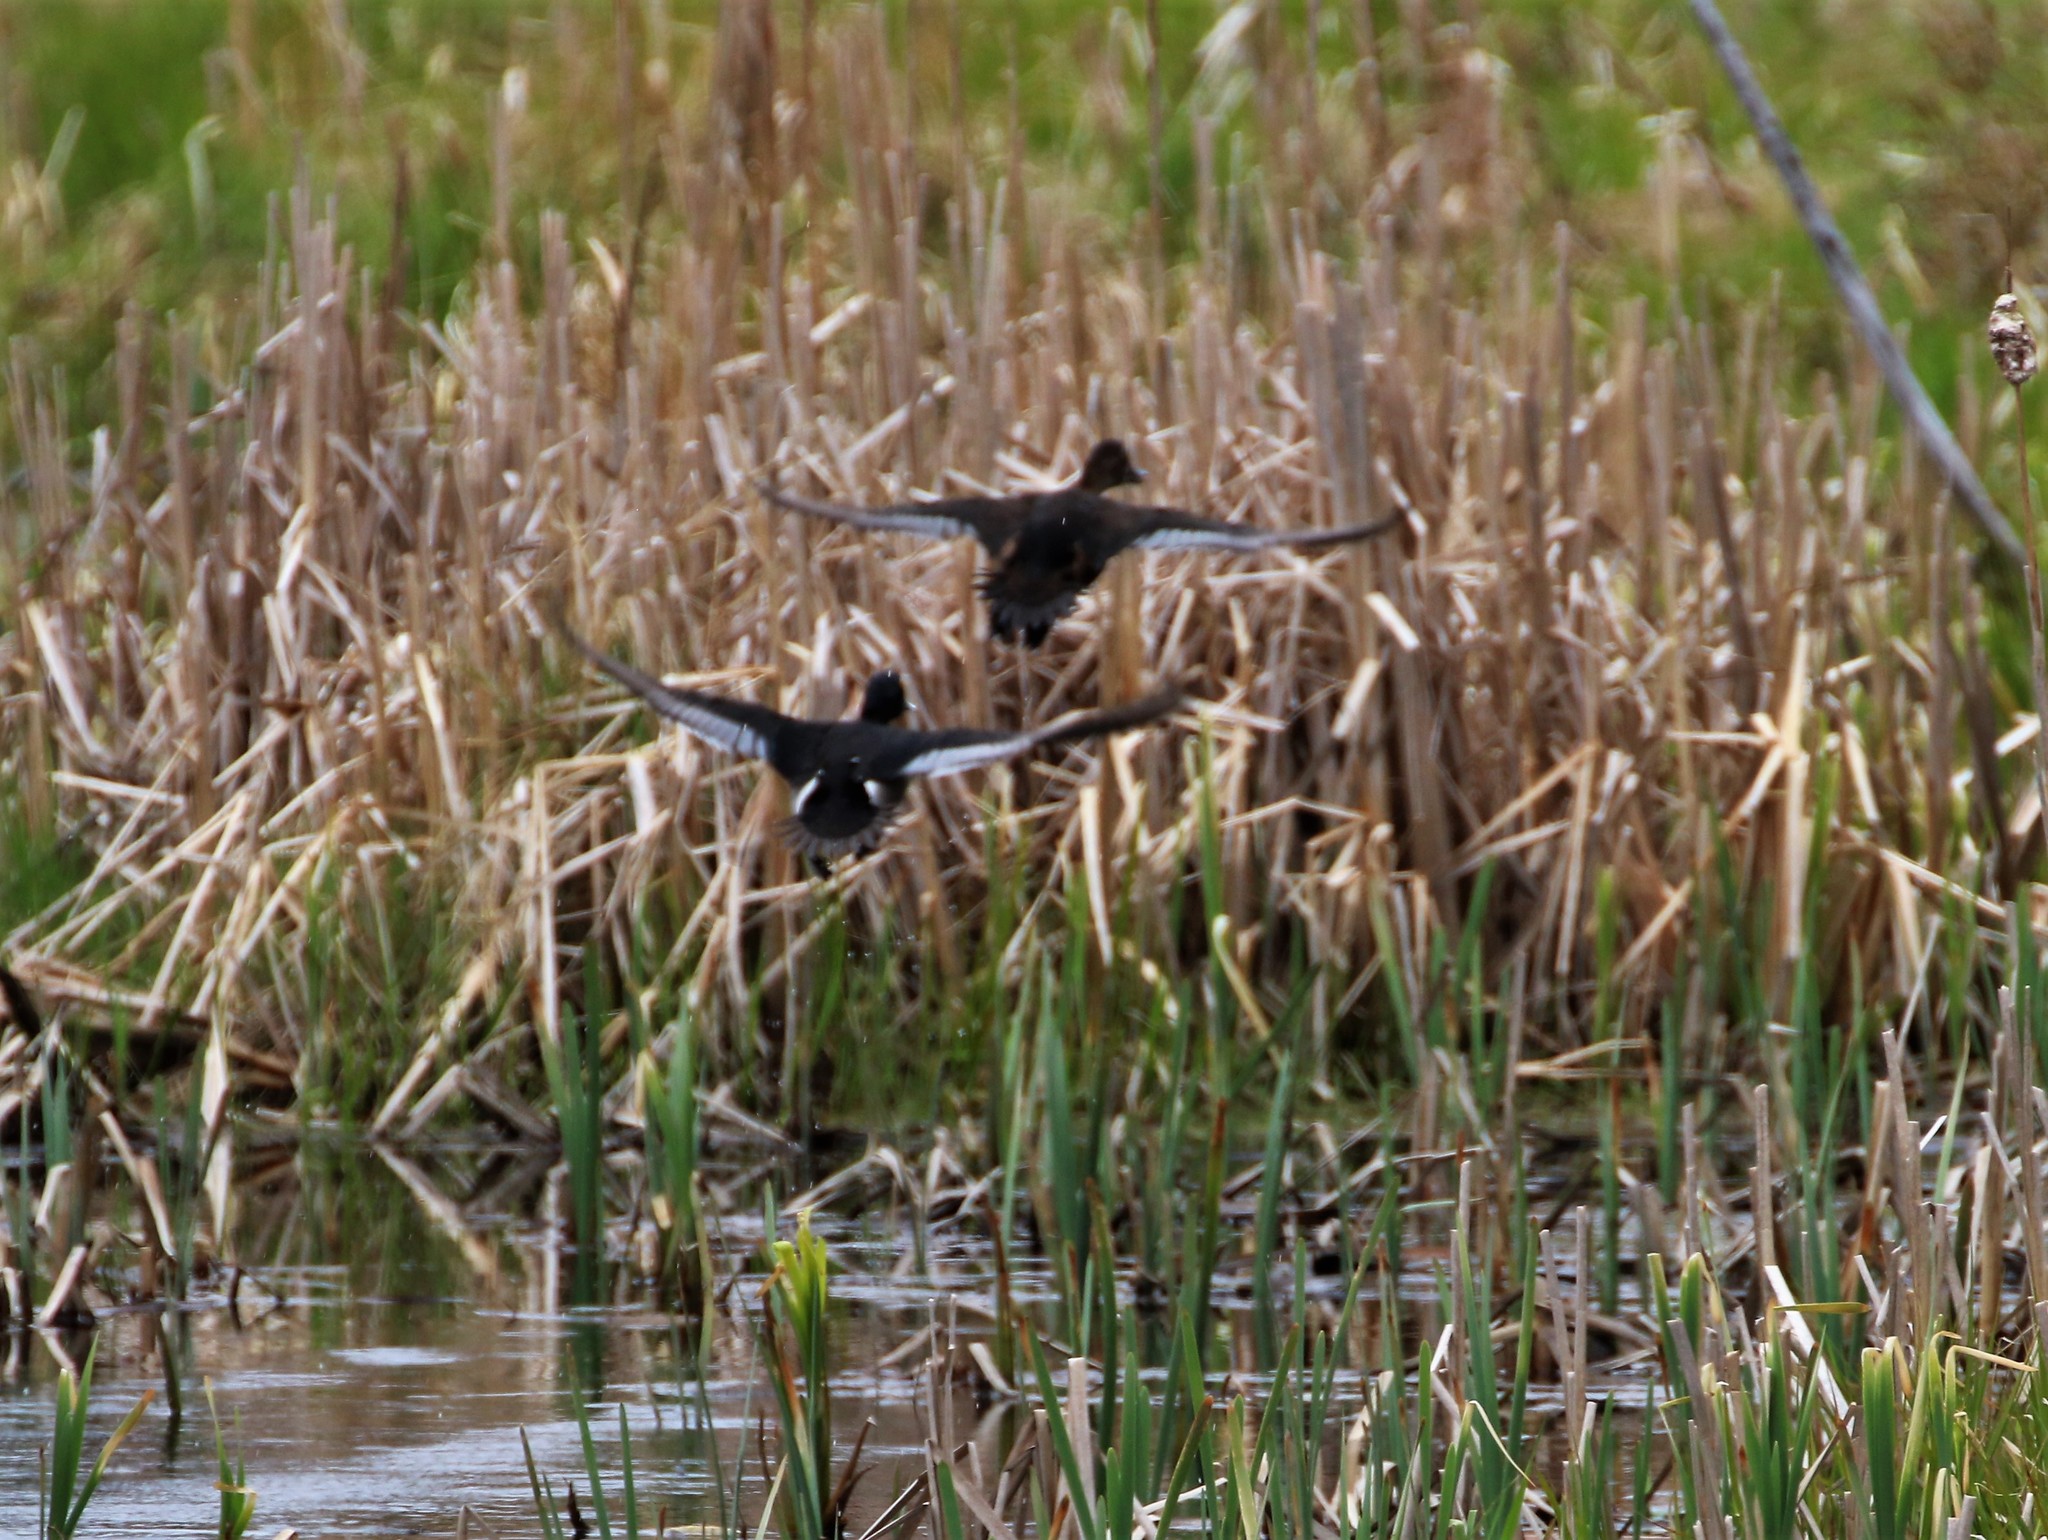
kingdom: Animalia
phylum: Chordata
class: Aves
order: Anseriformes
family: Anatidae
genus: Aythya
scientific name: Aythya collaris
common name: Ring-necked duck
